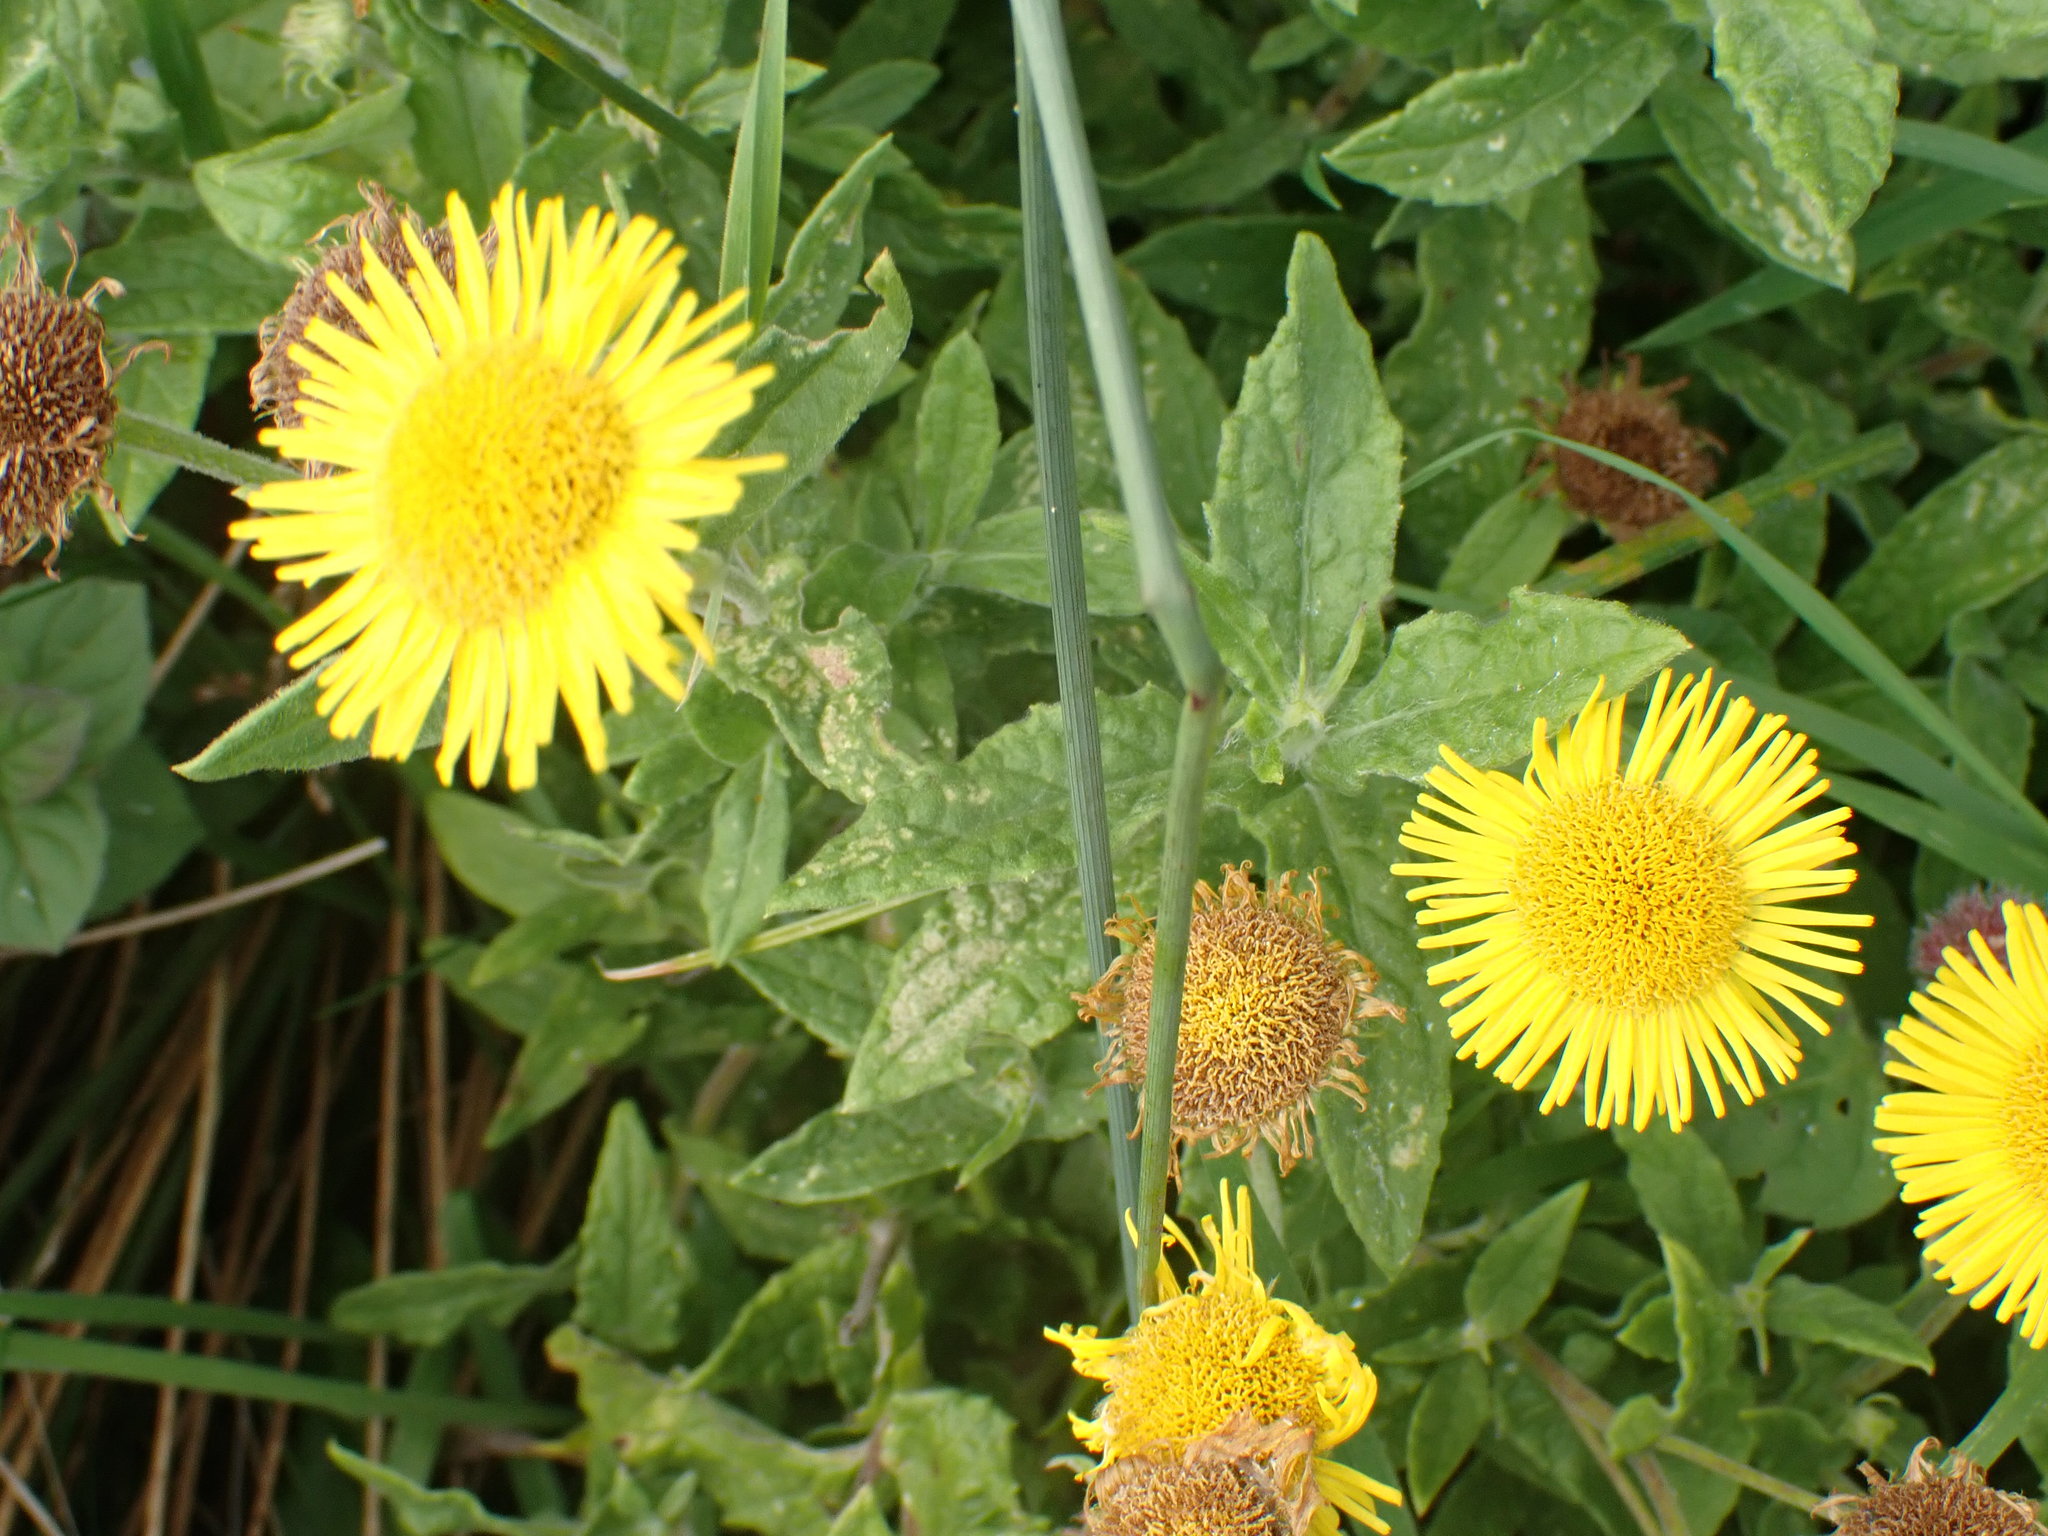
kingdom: Plantae
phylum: Tracheophyta
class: Magnoliopsida
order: Asterales
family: Asteraceae
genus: Pulicaria
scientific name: Pulicaria dysenterica
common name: Common fleabane
